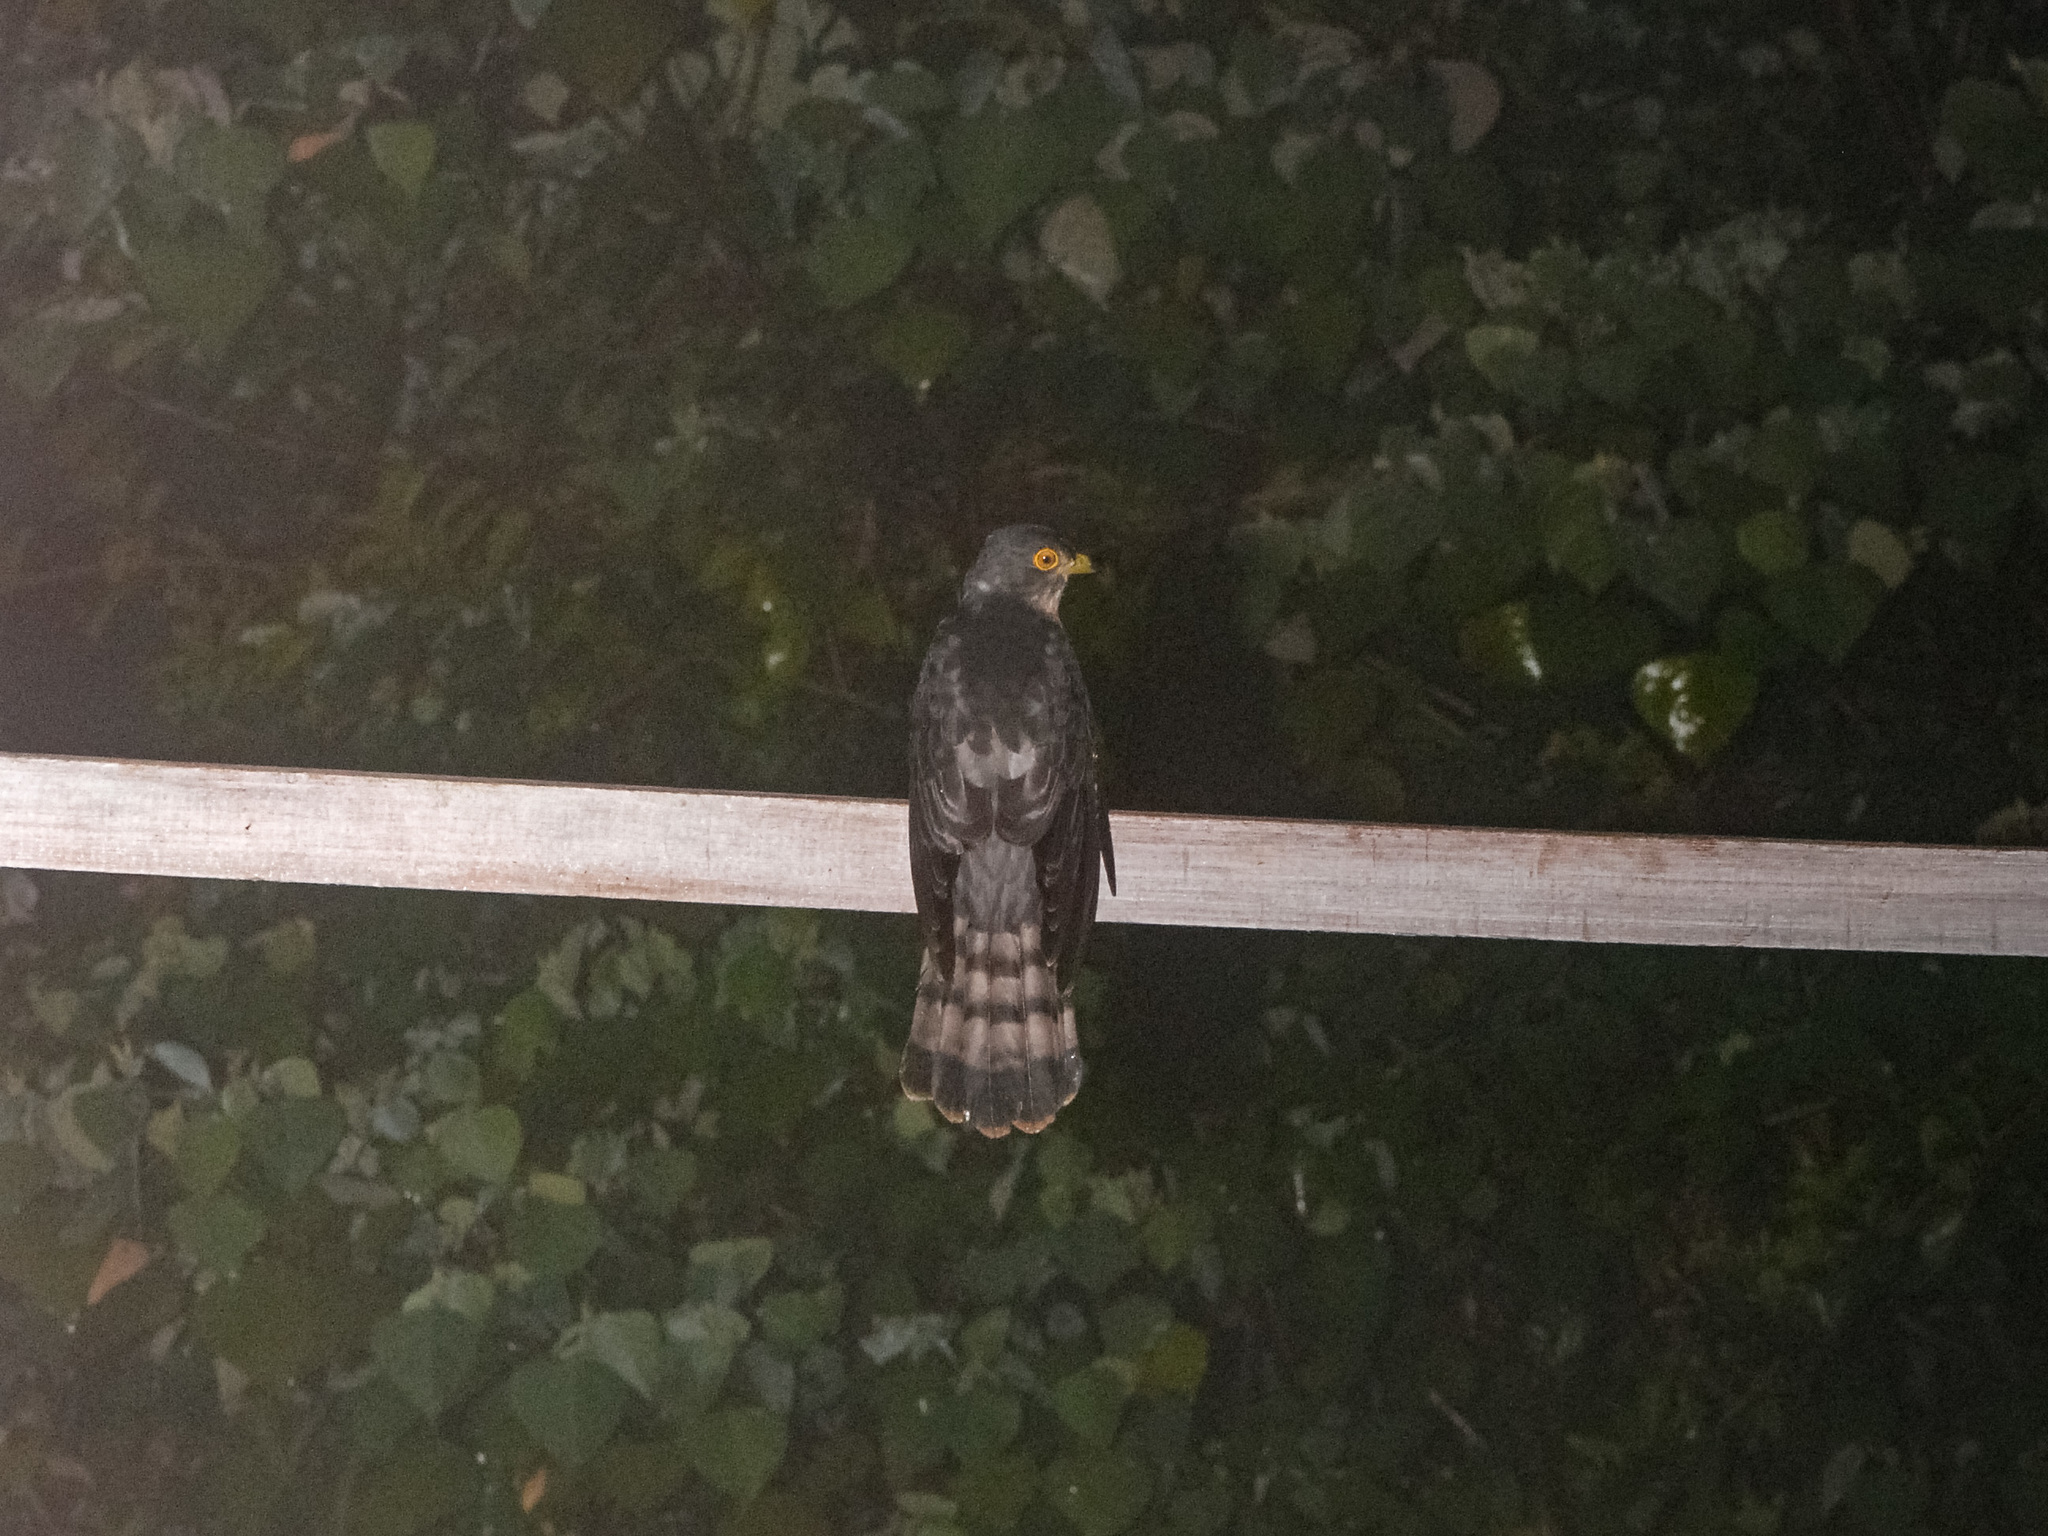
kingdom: Animalia
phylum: Chordata
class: Aves
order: Cuculiformes
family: Cuculidae
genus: Cuculus
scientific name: Cuculus nisicolor
